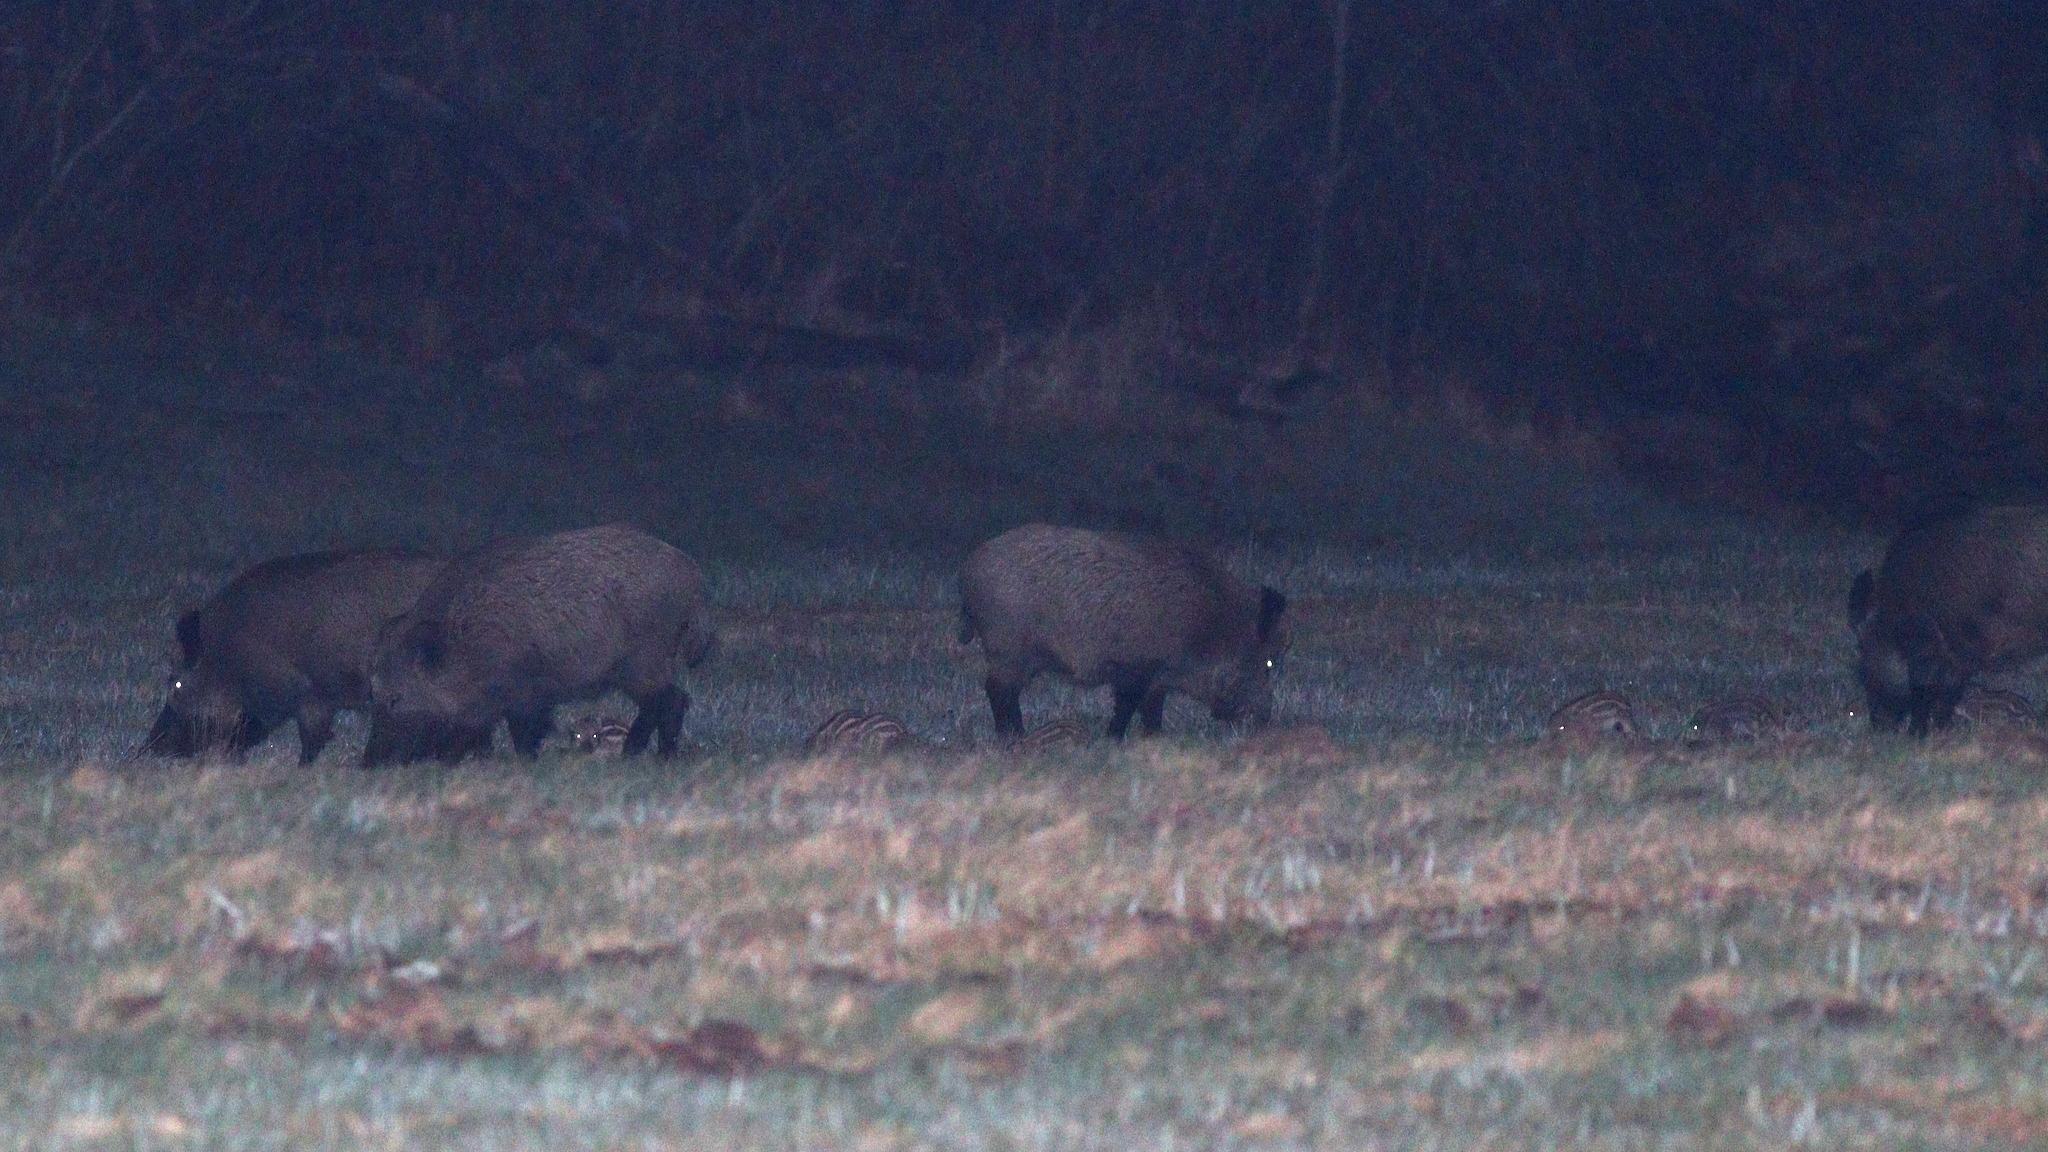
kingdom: Animalia
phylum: Chordata
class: Mammalia
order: Artiodactyla
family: Suidae
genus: Sus
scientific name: Sus scrofa
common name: Wild boar
